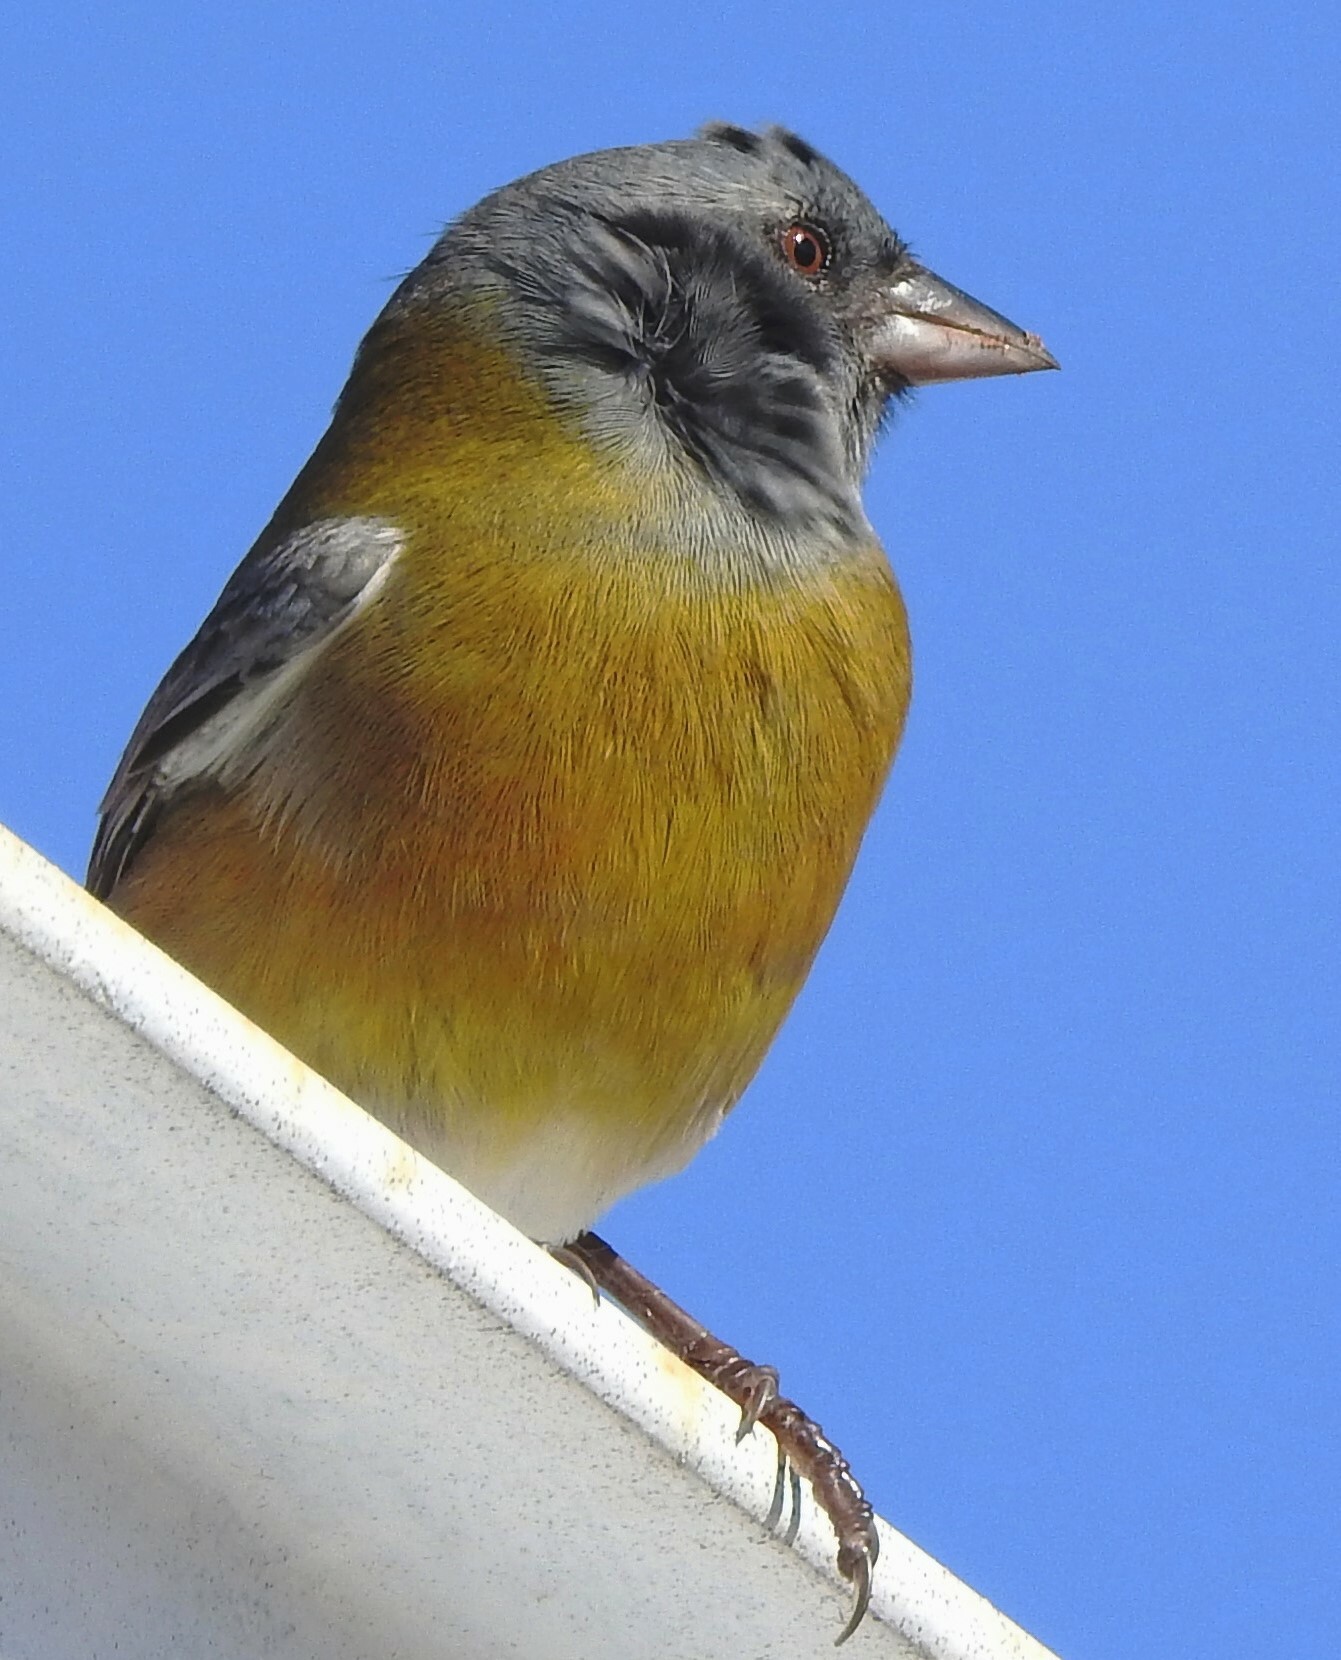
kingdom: Animalia
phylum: Chordata
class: Aves
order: Passeriformes
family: Thraupidae
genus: Phrygilus
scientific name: Phrygilus gayi
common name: Grey-hooded sierra finch
